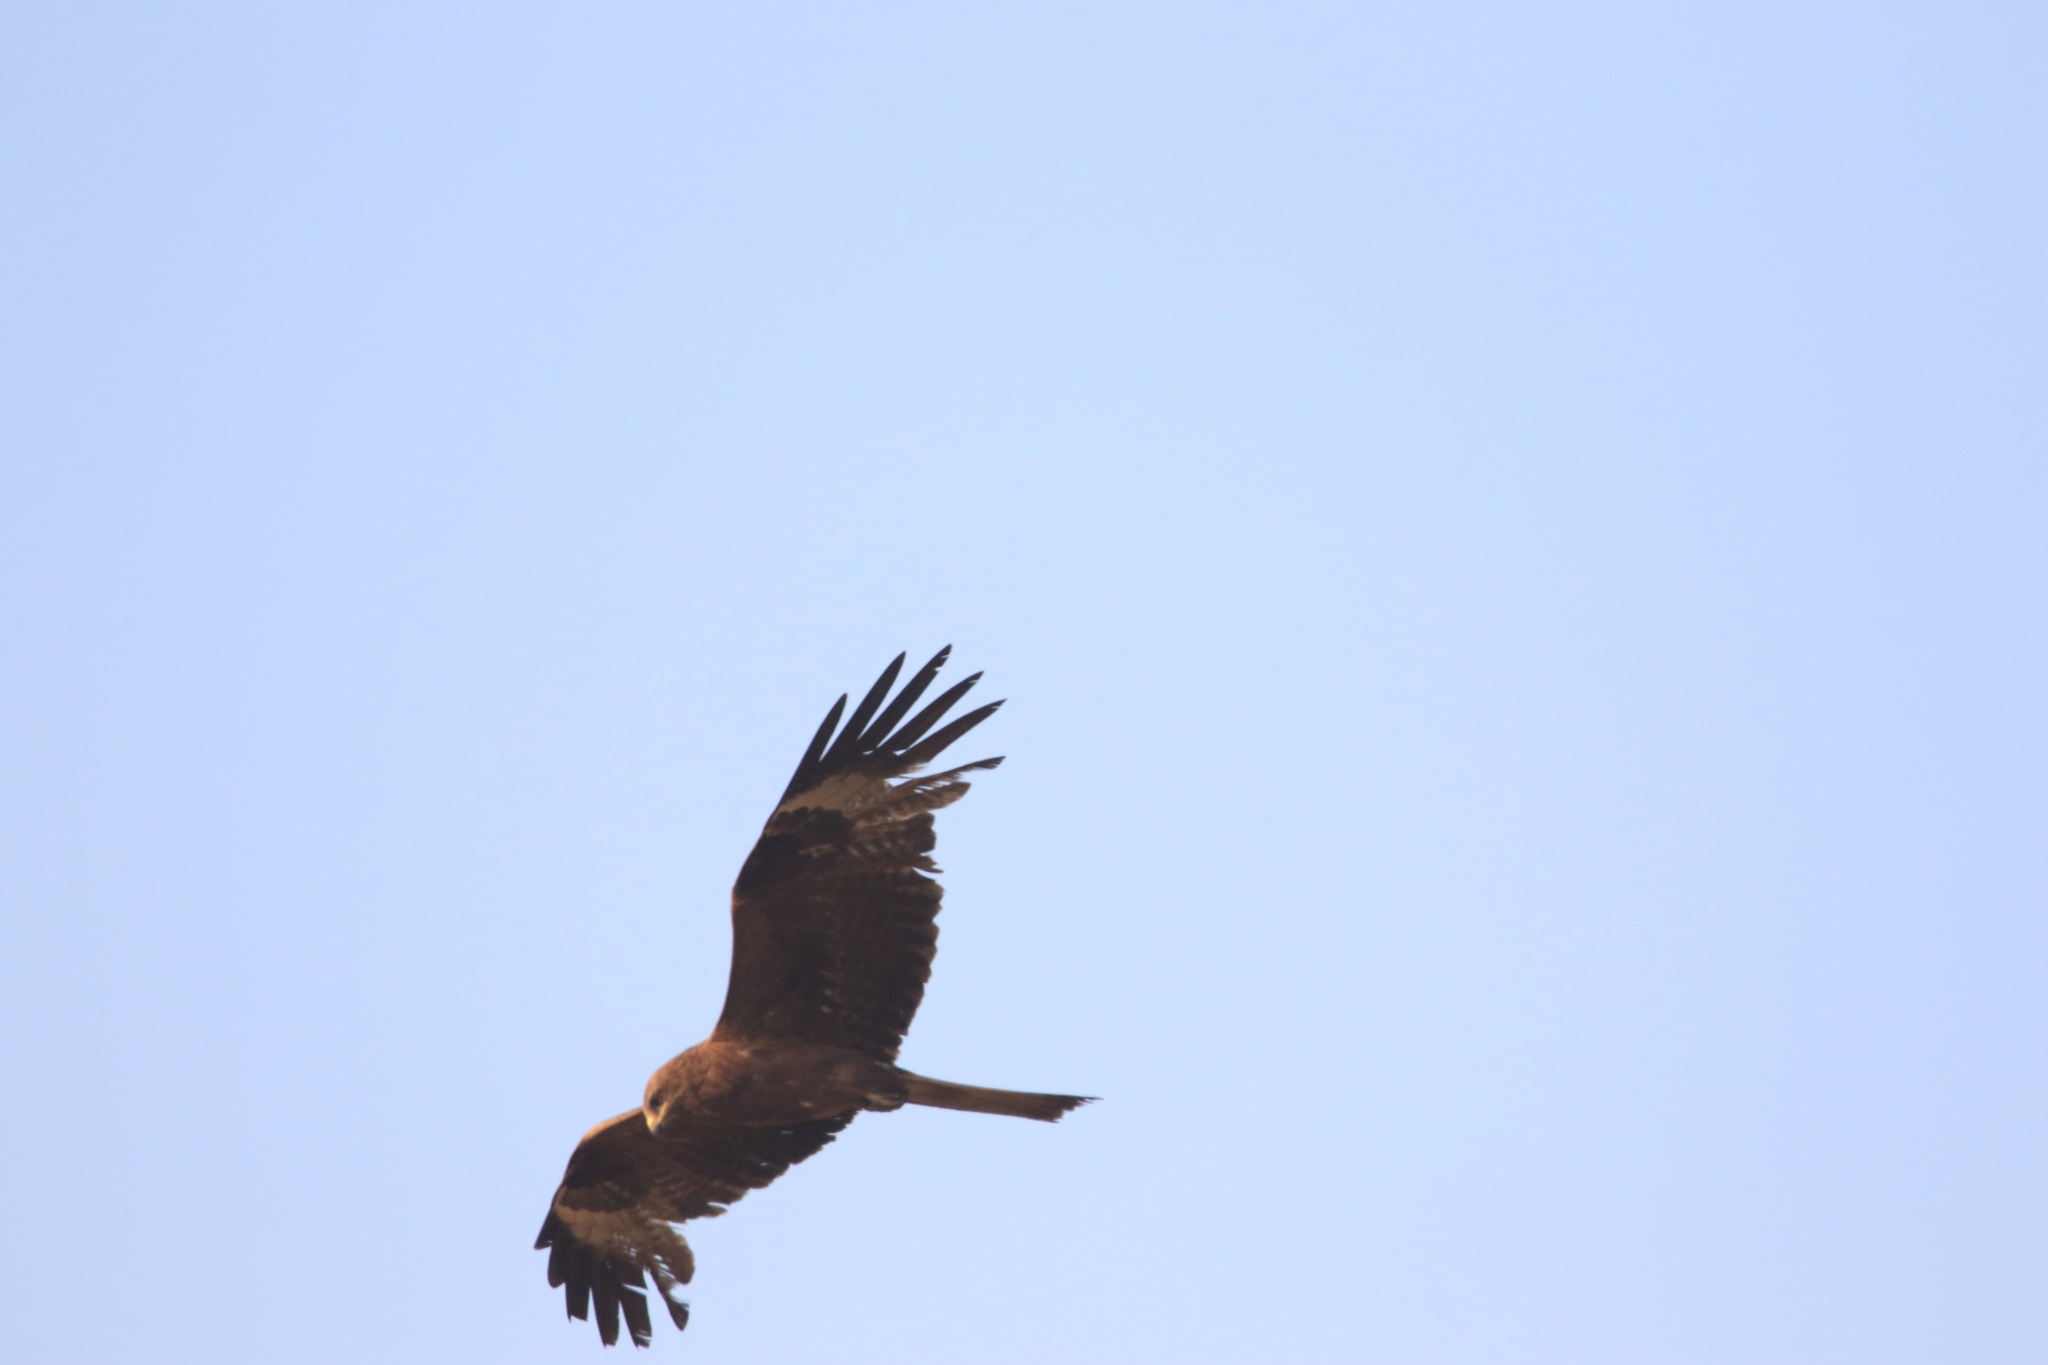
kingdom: Animalia
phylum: Chordata
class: Aves
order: Accipitriformes
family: Accipitridae
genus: Milvus
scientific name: Milvus migrans
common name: Black kite
